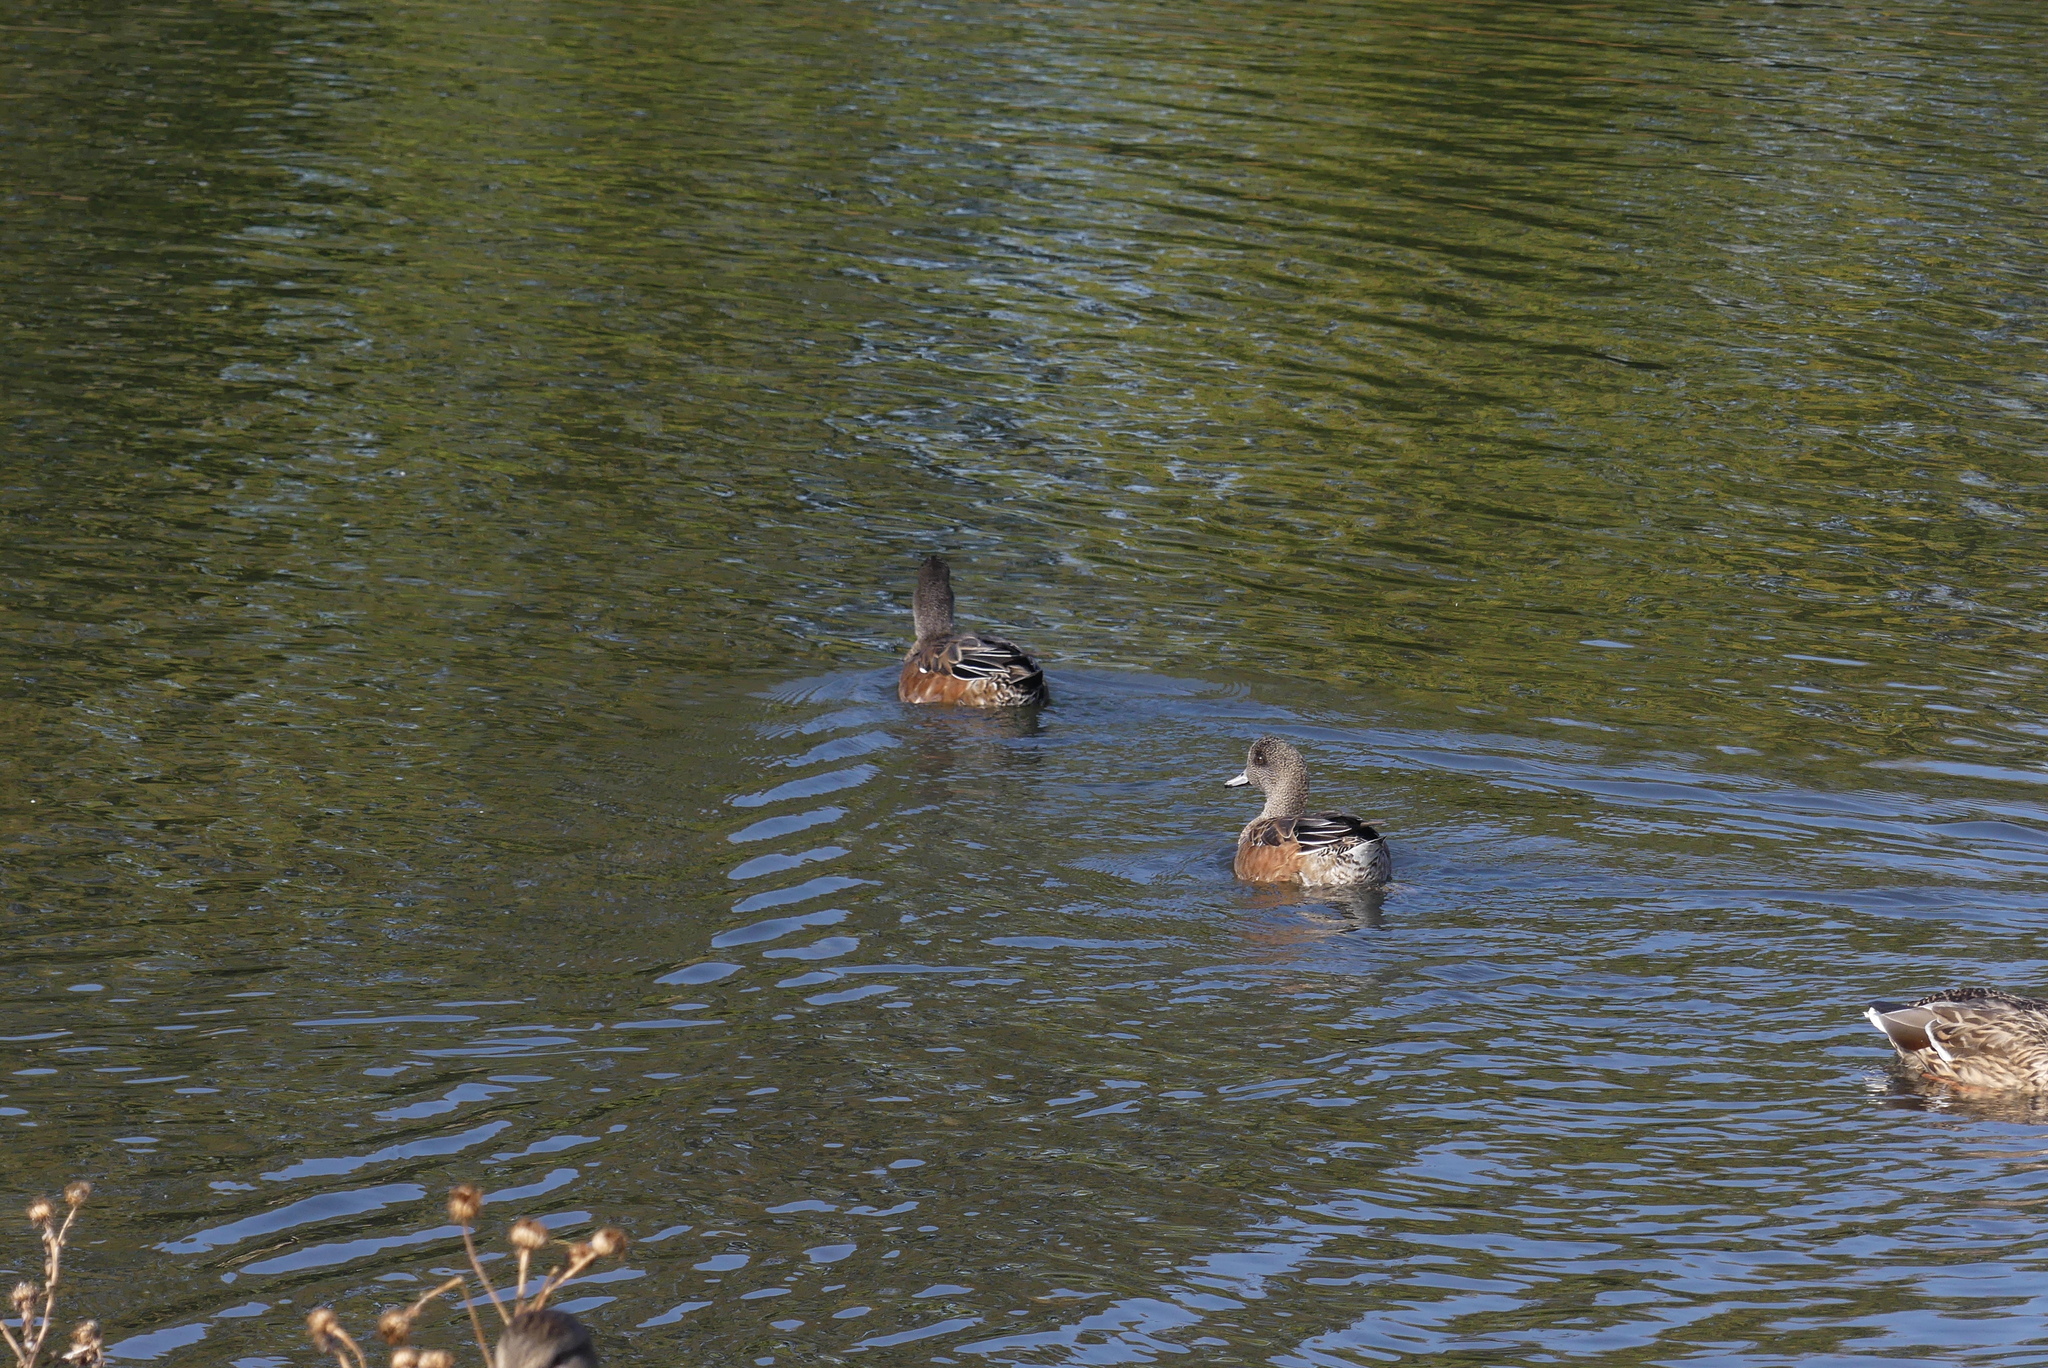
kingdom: Animalia
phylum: Chordata
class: Aves
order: Anseriformes
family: Anatidae
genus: Mareca
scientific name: Mareca americana
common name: American wigeon
